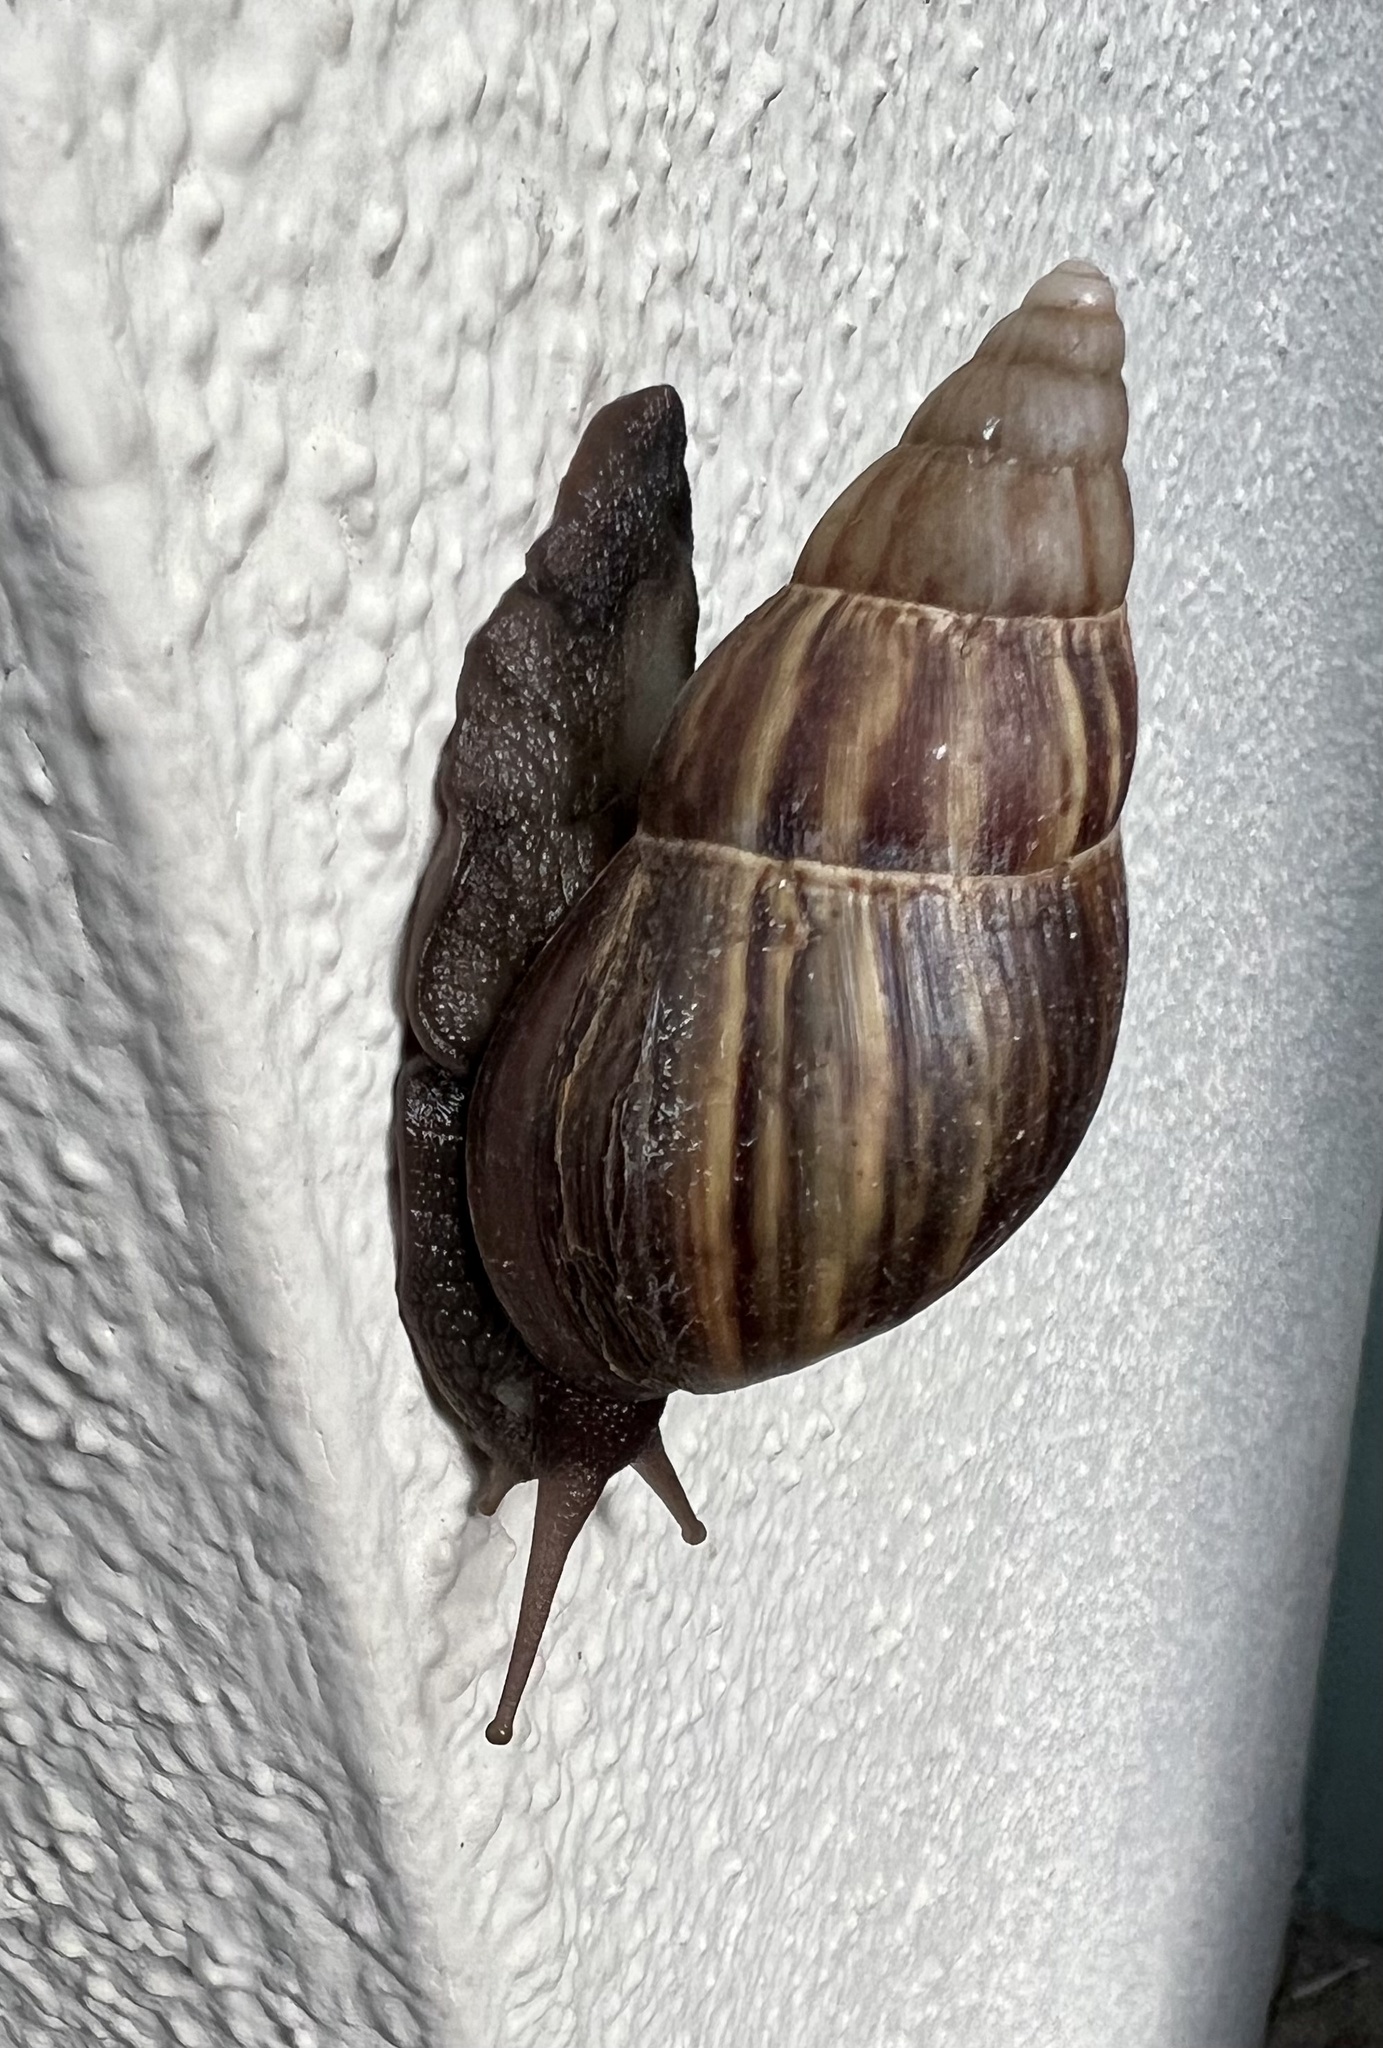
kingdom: Animalia
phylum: Mollusca
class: Gastropoda
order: Stylommatophora
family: Achatinidae
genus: Lissachatina
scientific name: Lissachatina fulica
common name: Giant african snail
